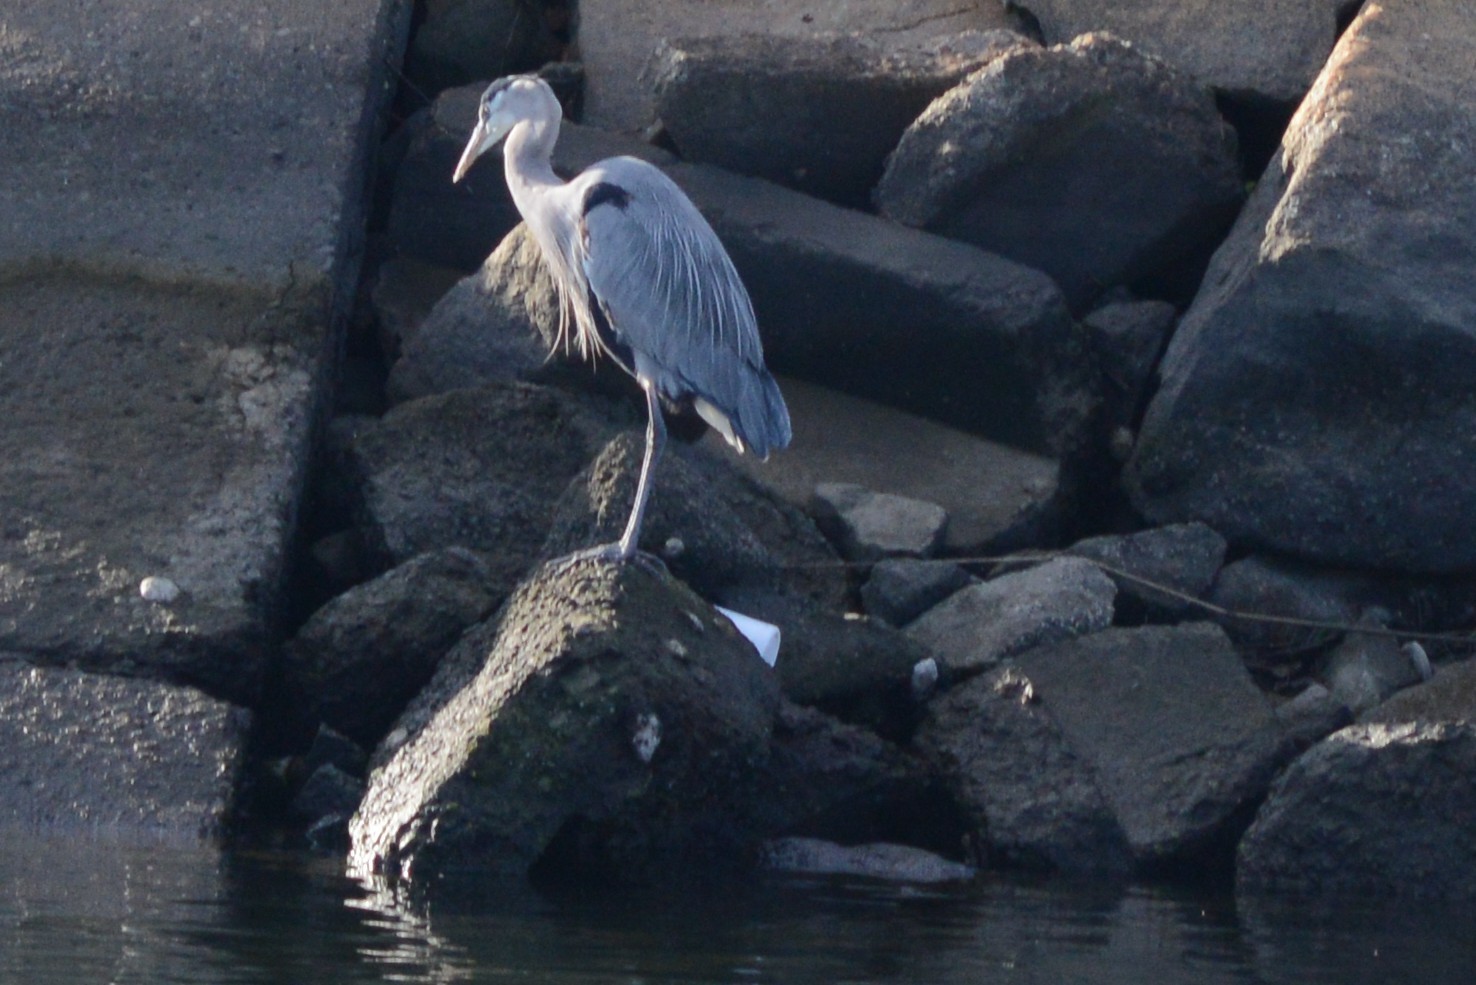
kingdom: Animalia
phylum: Chordata
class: Aves
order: Pelecaniformes
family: Ardeidae
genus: Ardea
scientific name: Ardea herodias
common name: Great blue heron
